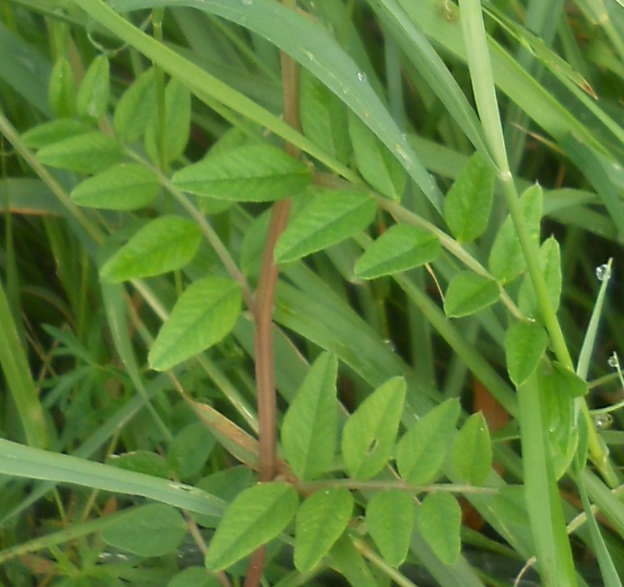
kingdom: Plantae
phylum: Tracheophyta
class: Magnoliopsida
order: Fabales
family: Fabaceae
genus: Vicia
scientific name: Vicia sepium
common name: Bush vetch
